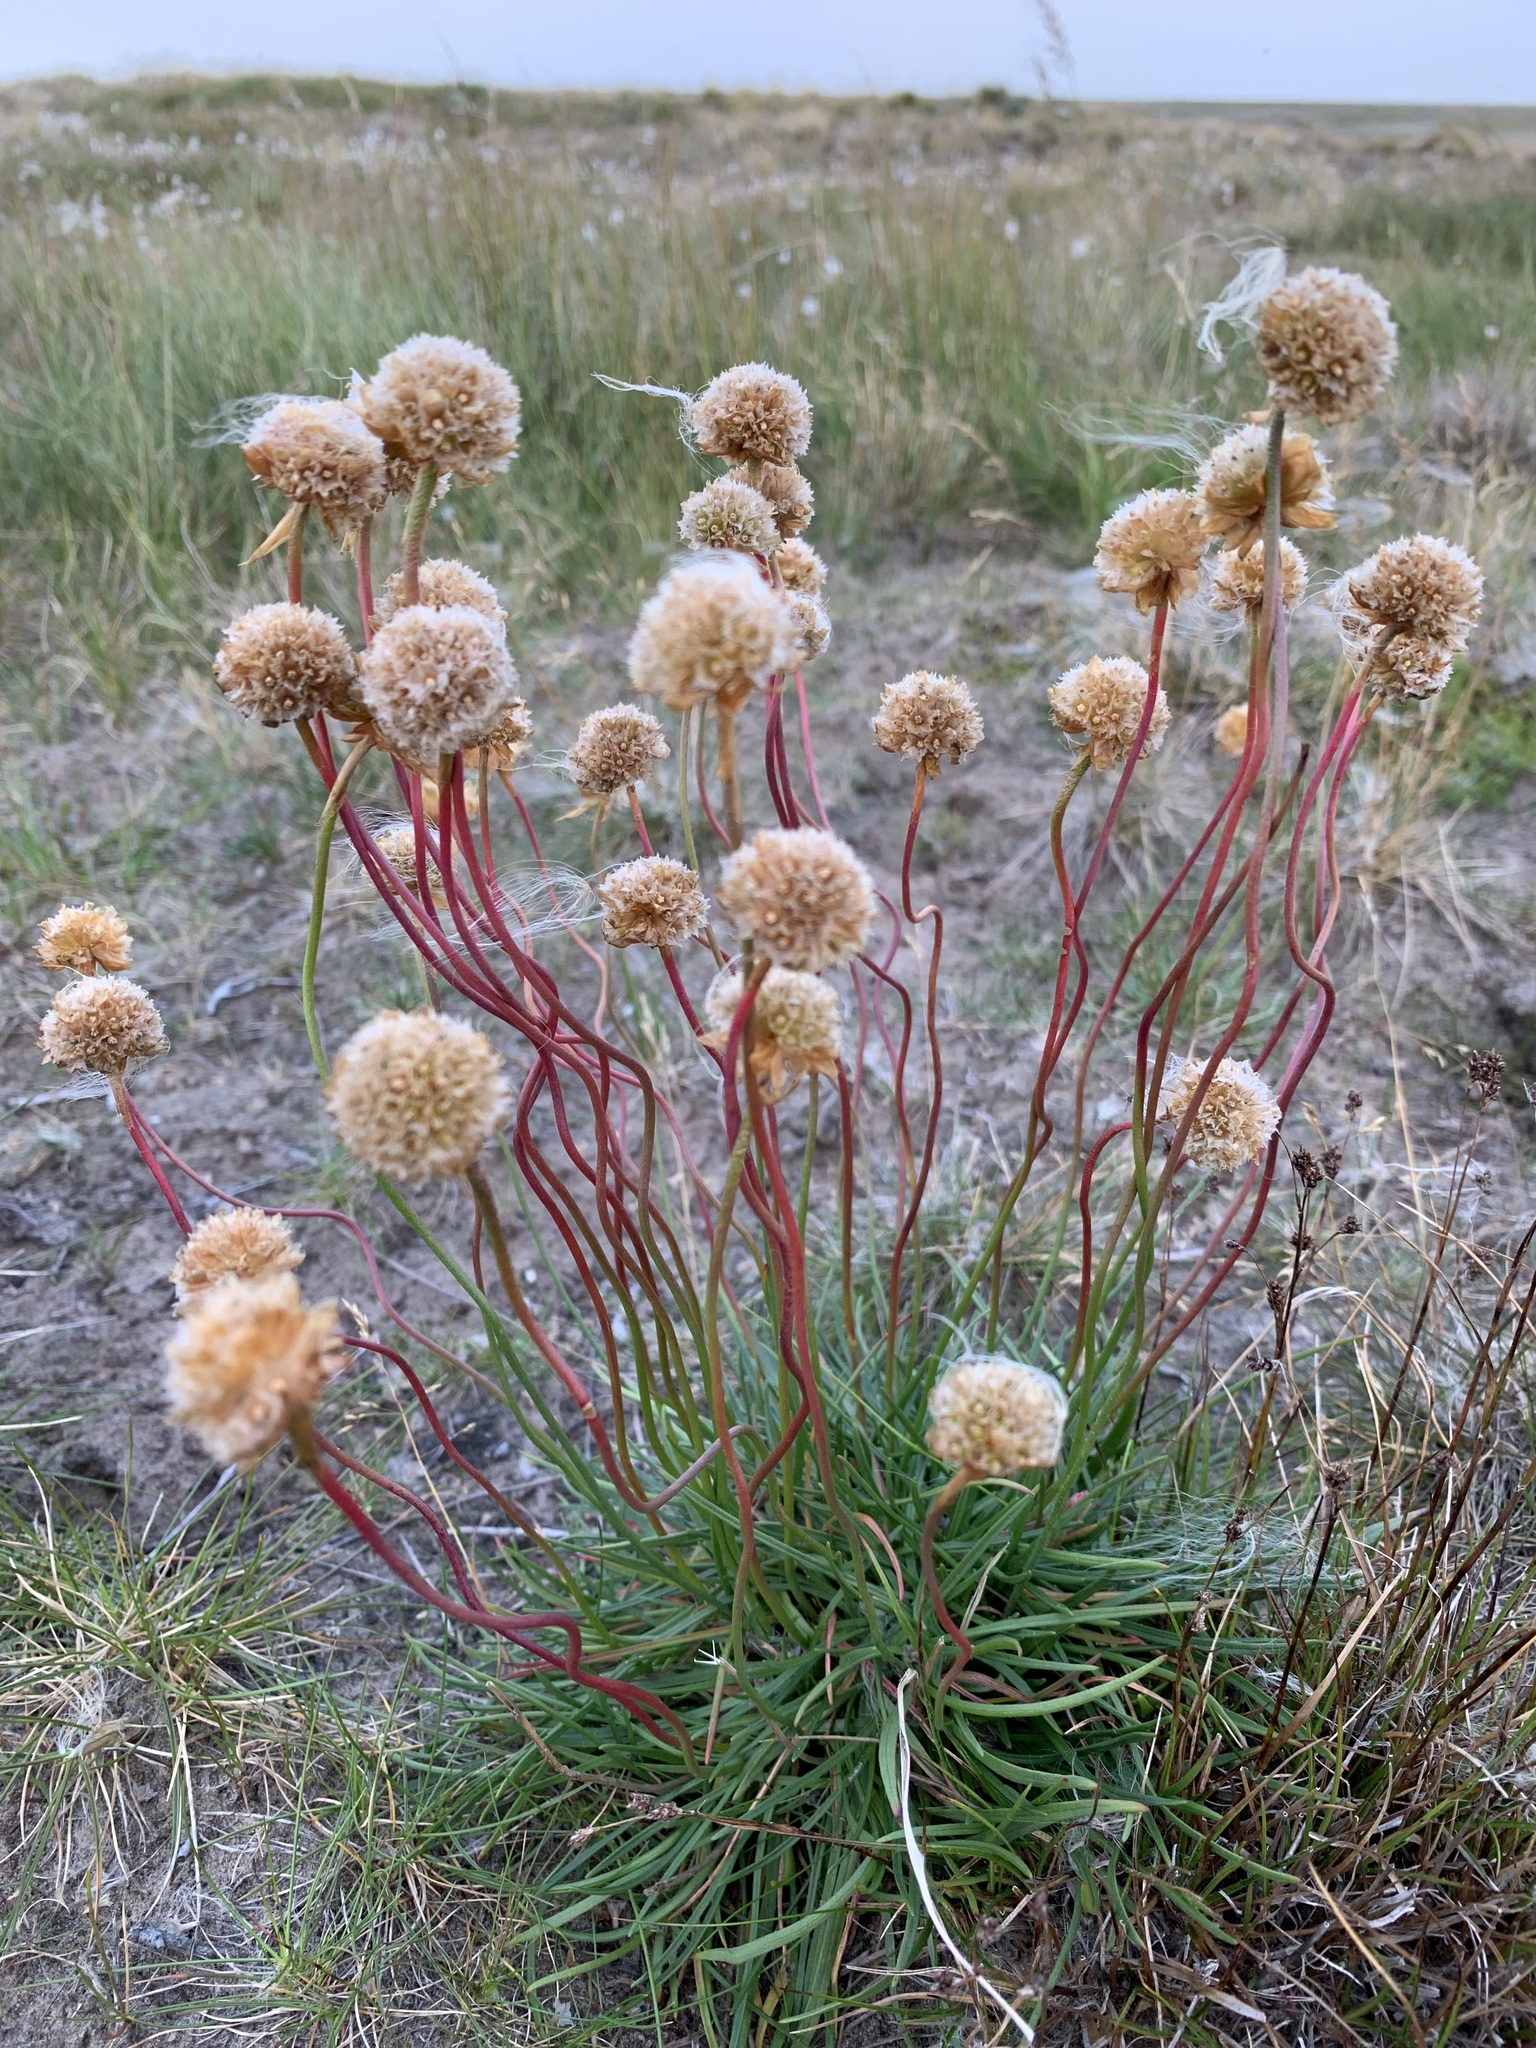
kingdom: Plantae
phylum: Tracheophyta
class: Magnoliopsida
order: Caryophyllales
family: Plumbaginaceae
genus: Armeria
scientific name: Armeria maritima
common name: Thrift
